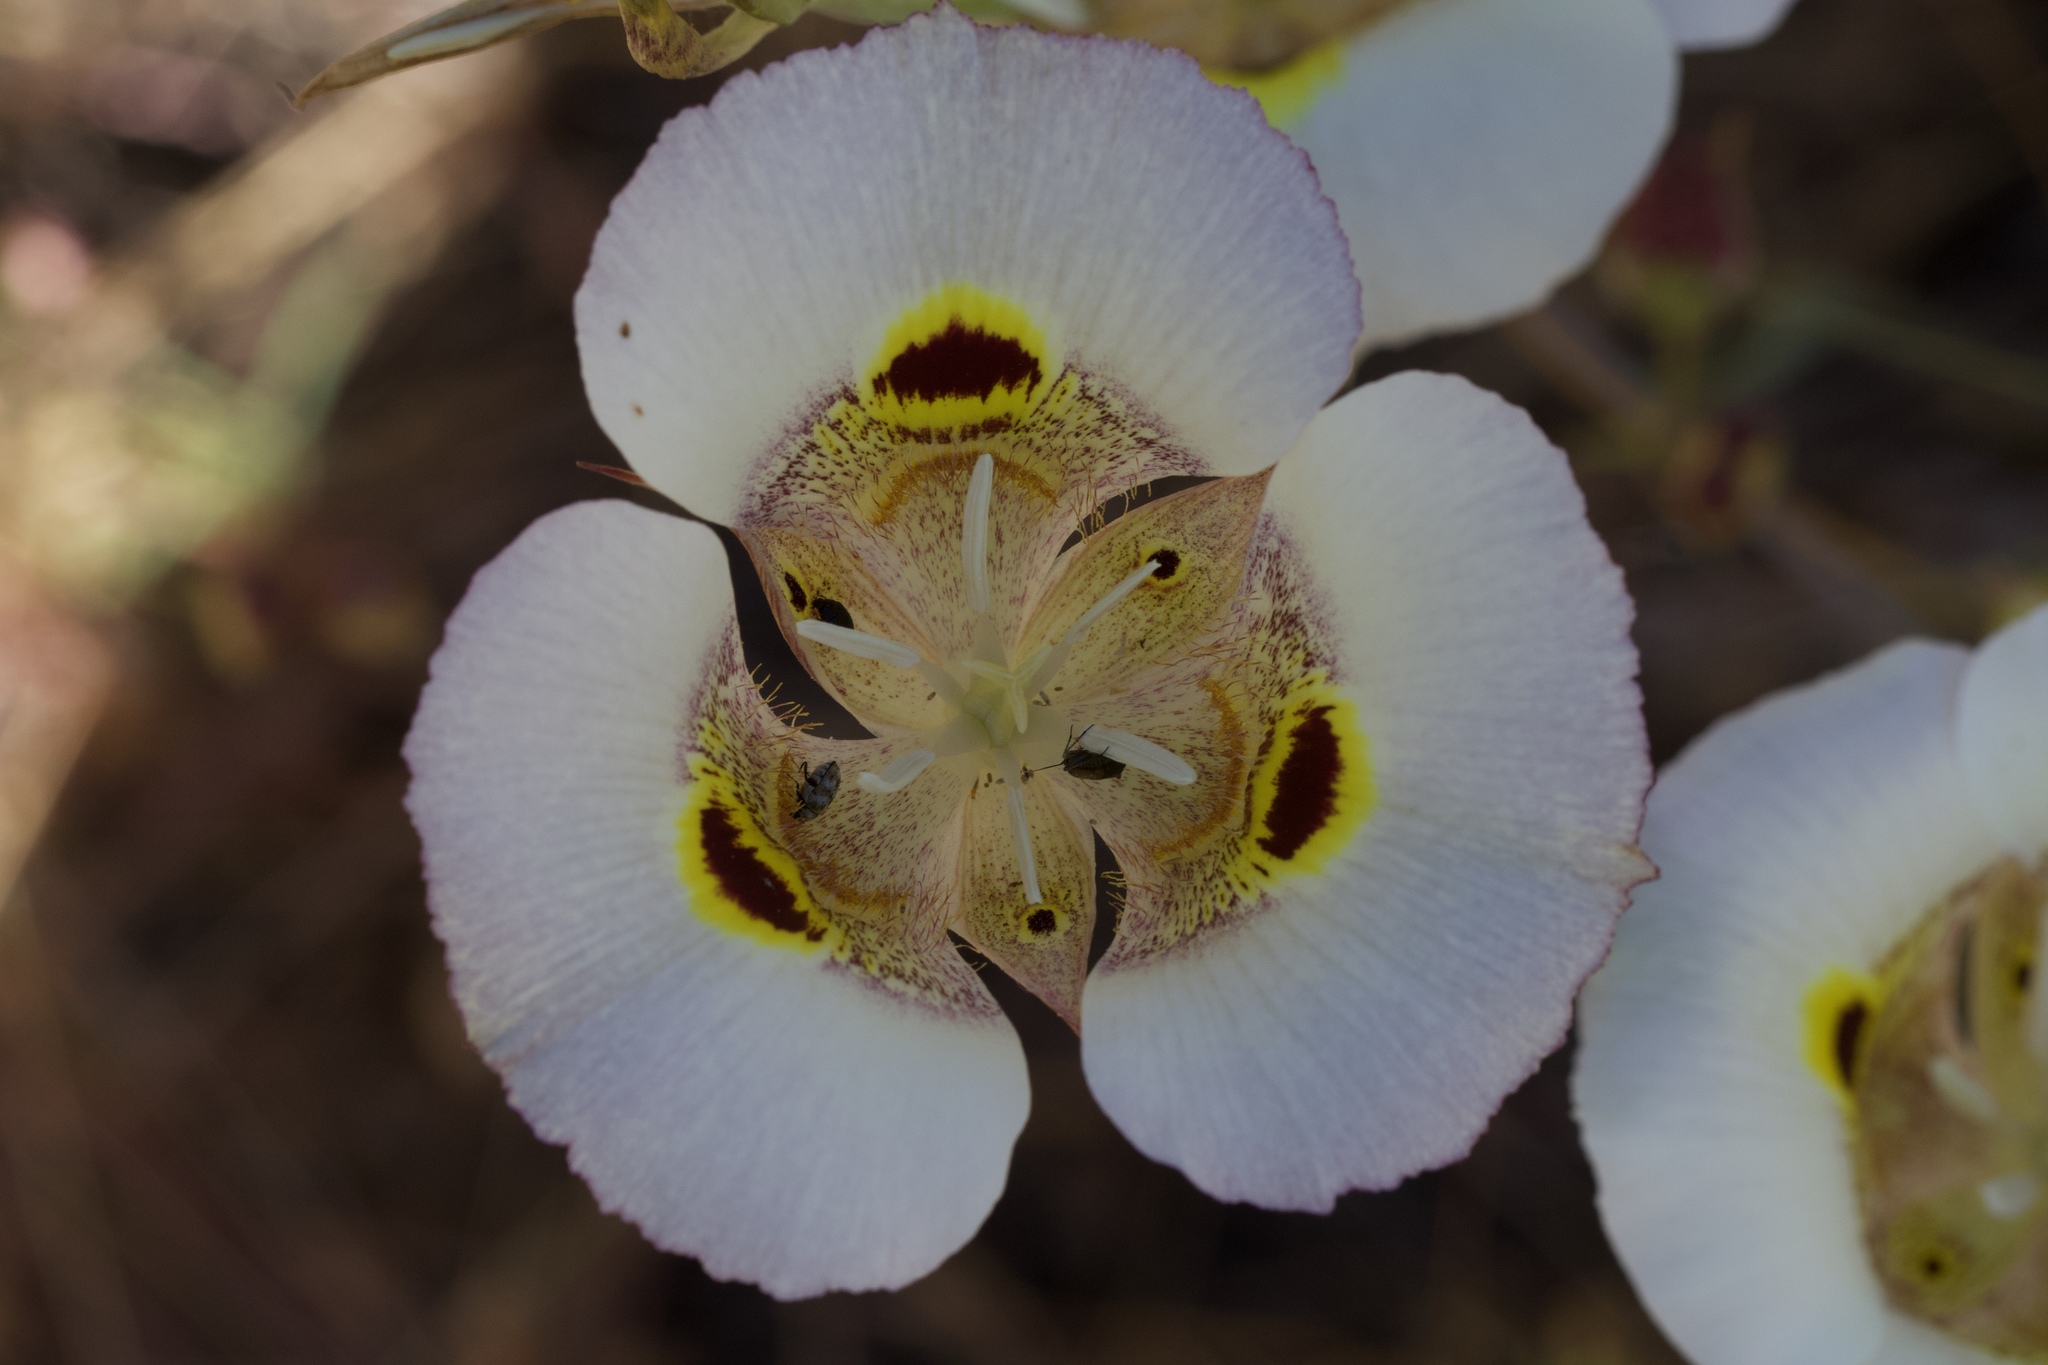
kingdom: Plantae
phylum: Tracheophyta
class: Liliopsida
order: Liliales
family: Liliaceae
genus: Calochortus
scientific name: Calochortus superbus
